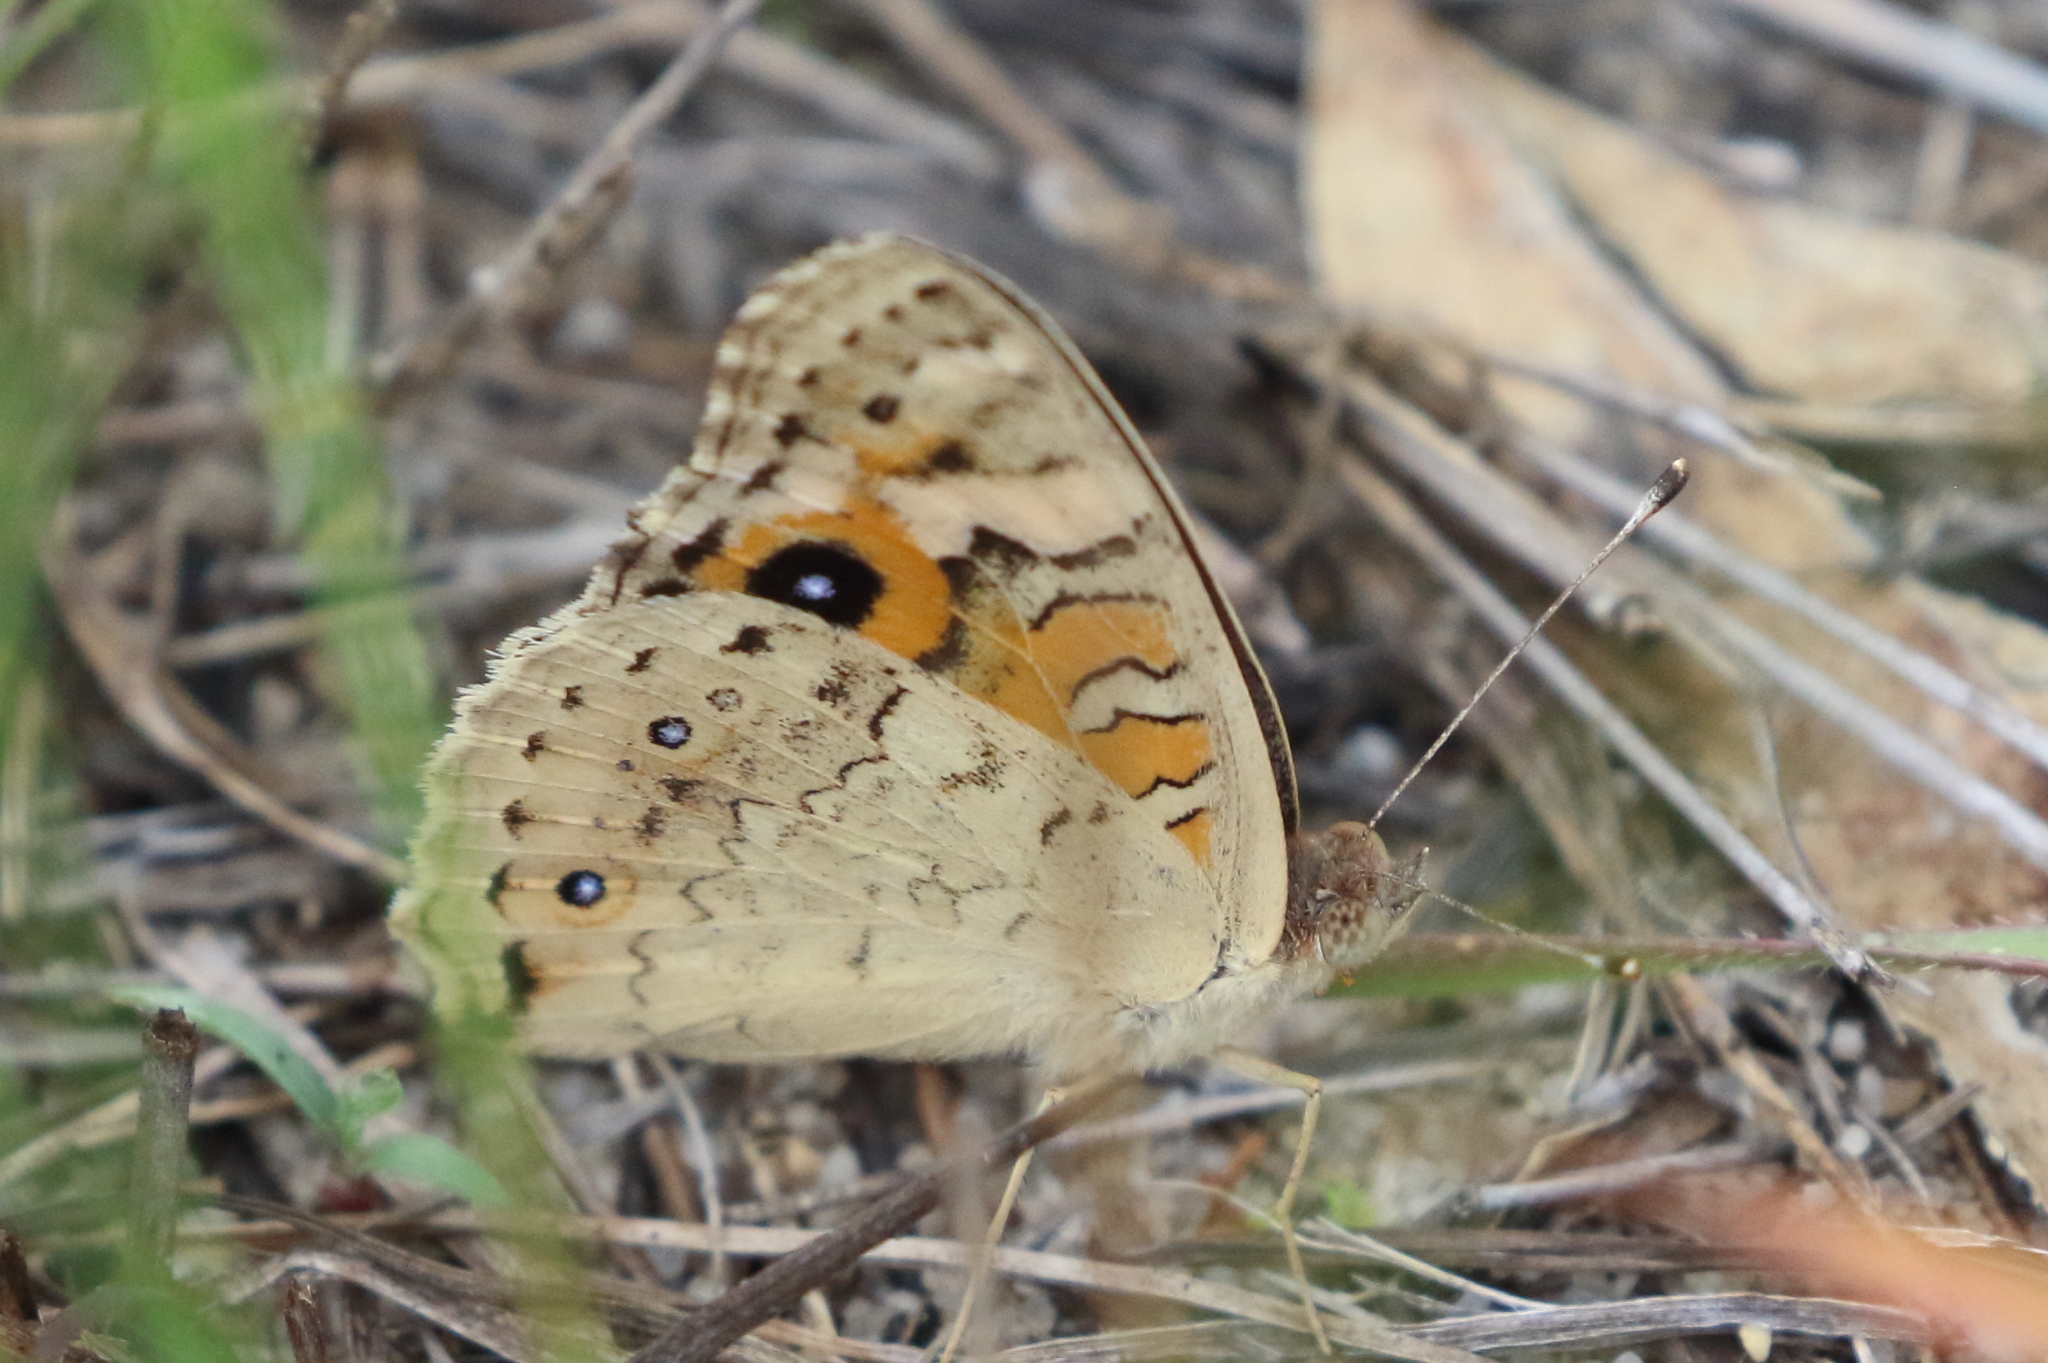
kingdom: Animalia
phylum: Arthropoda
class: Insecta
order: Lepidoptera
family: Nymphalidae
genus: Junonia
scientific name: Junonia villida
